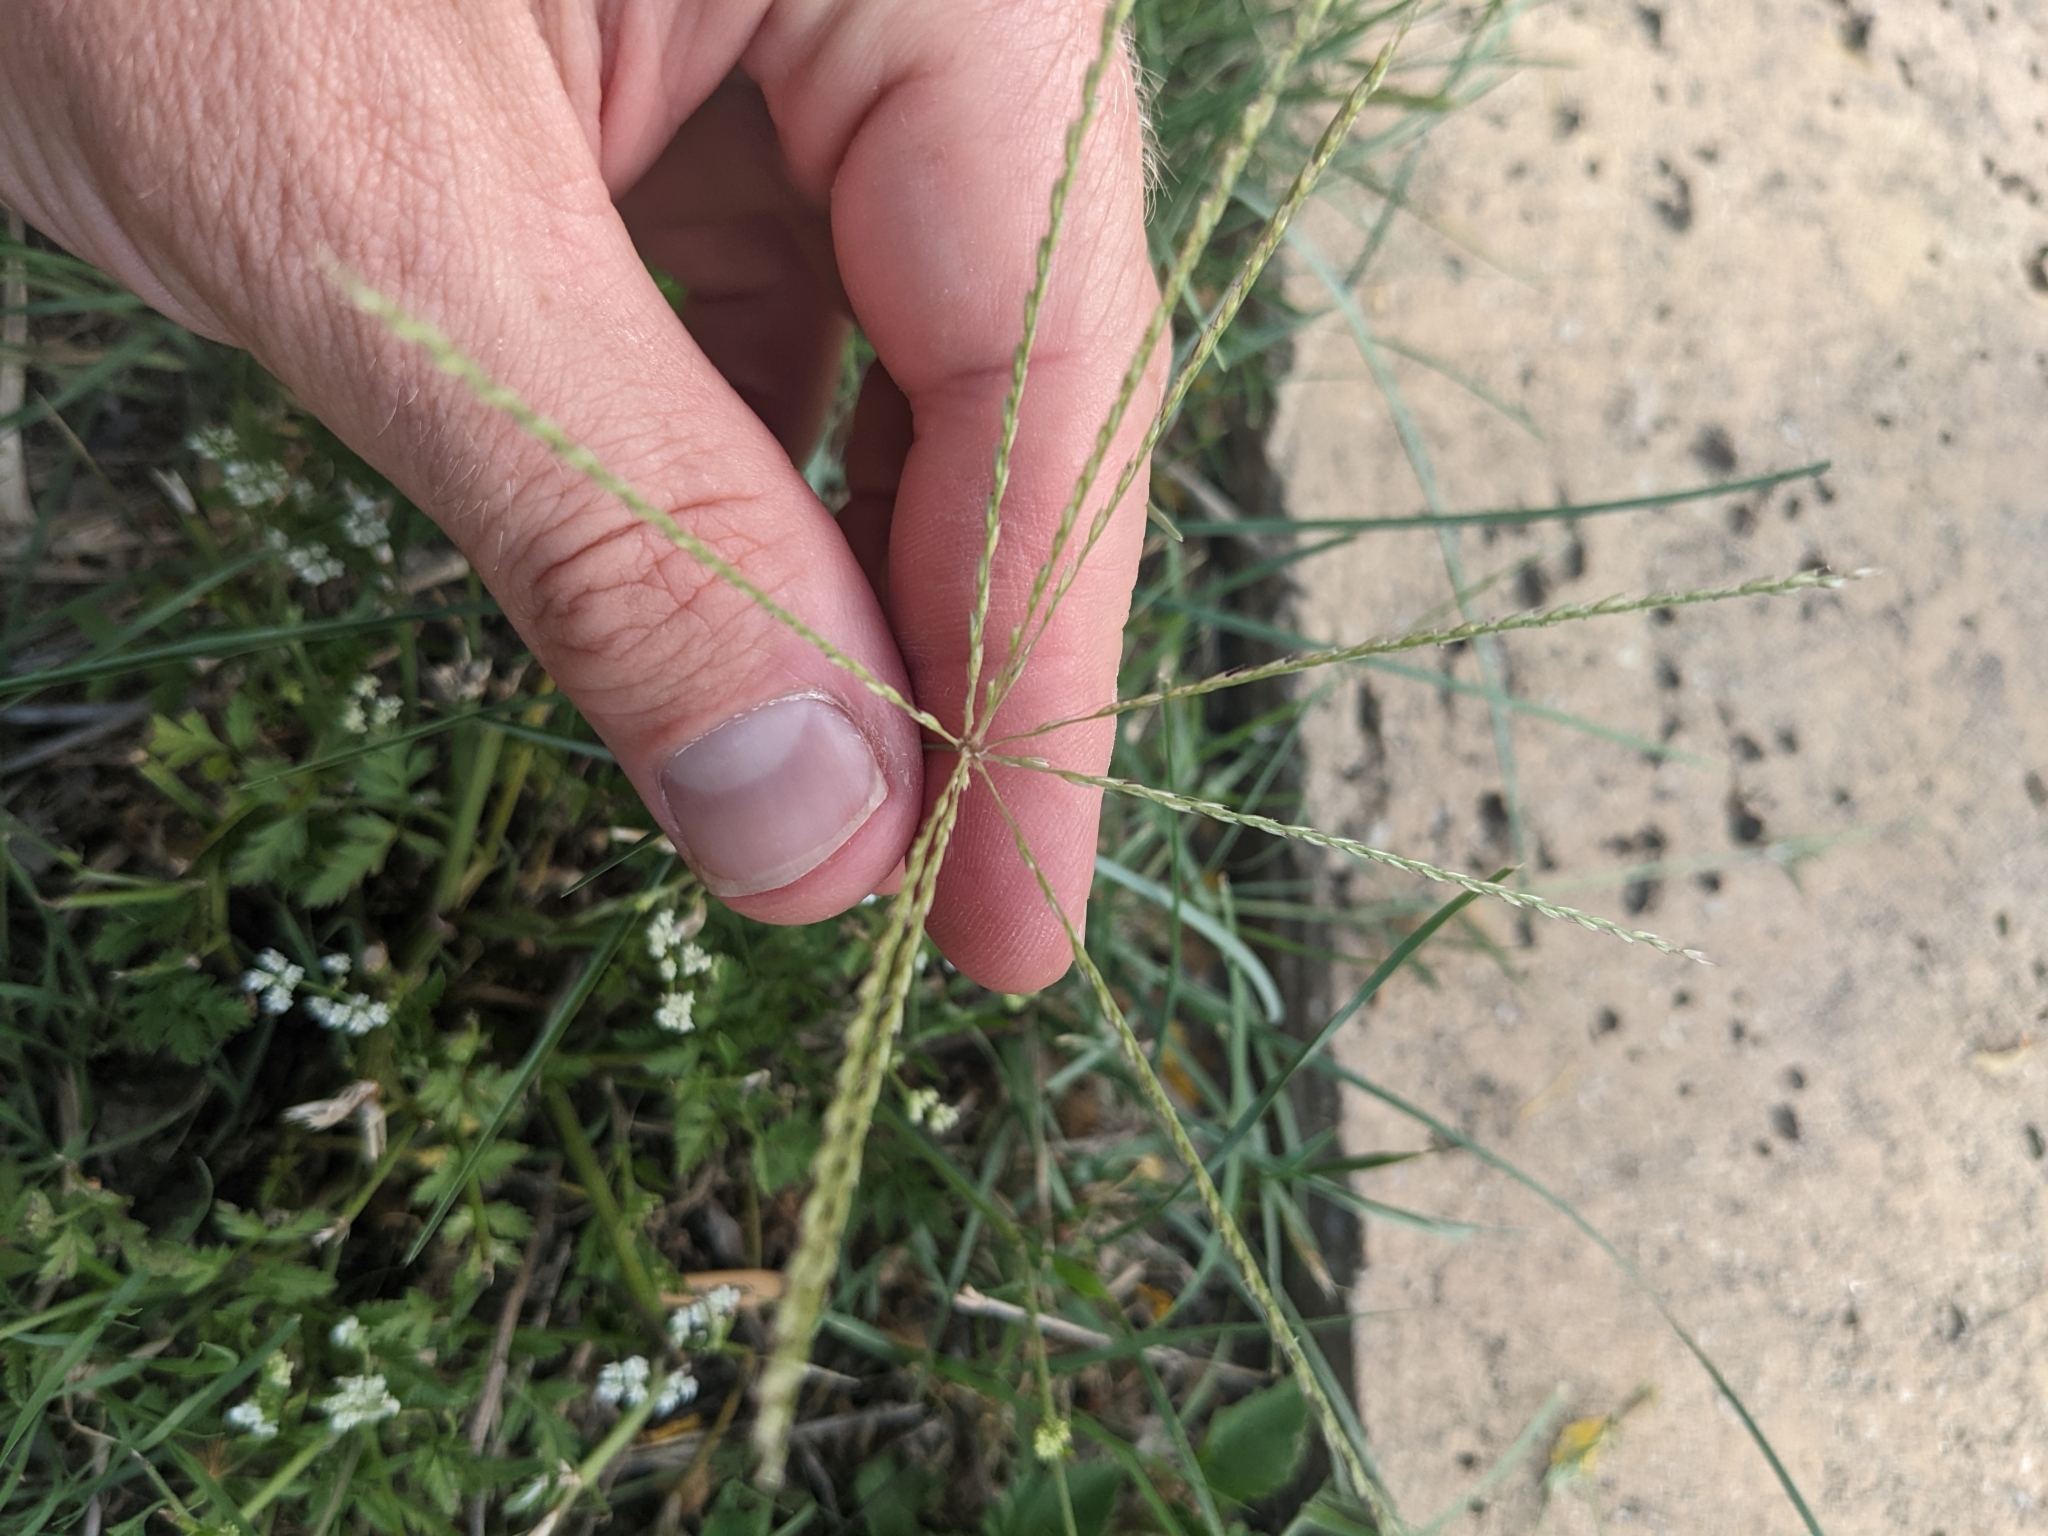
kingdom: Plantae
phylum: Tracheophyta
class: Liliopsida
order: Poales
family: Poaceae
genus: Chloris
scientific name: Chloris andropogonoides
